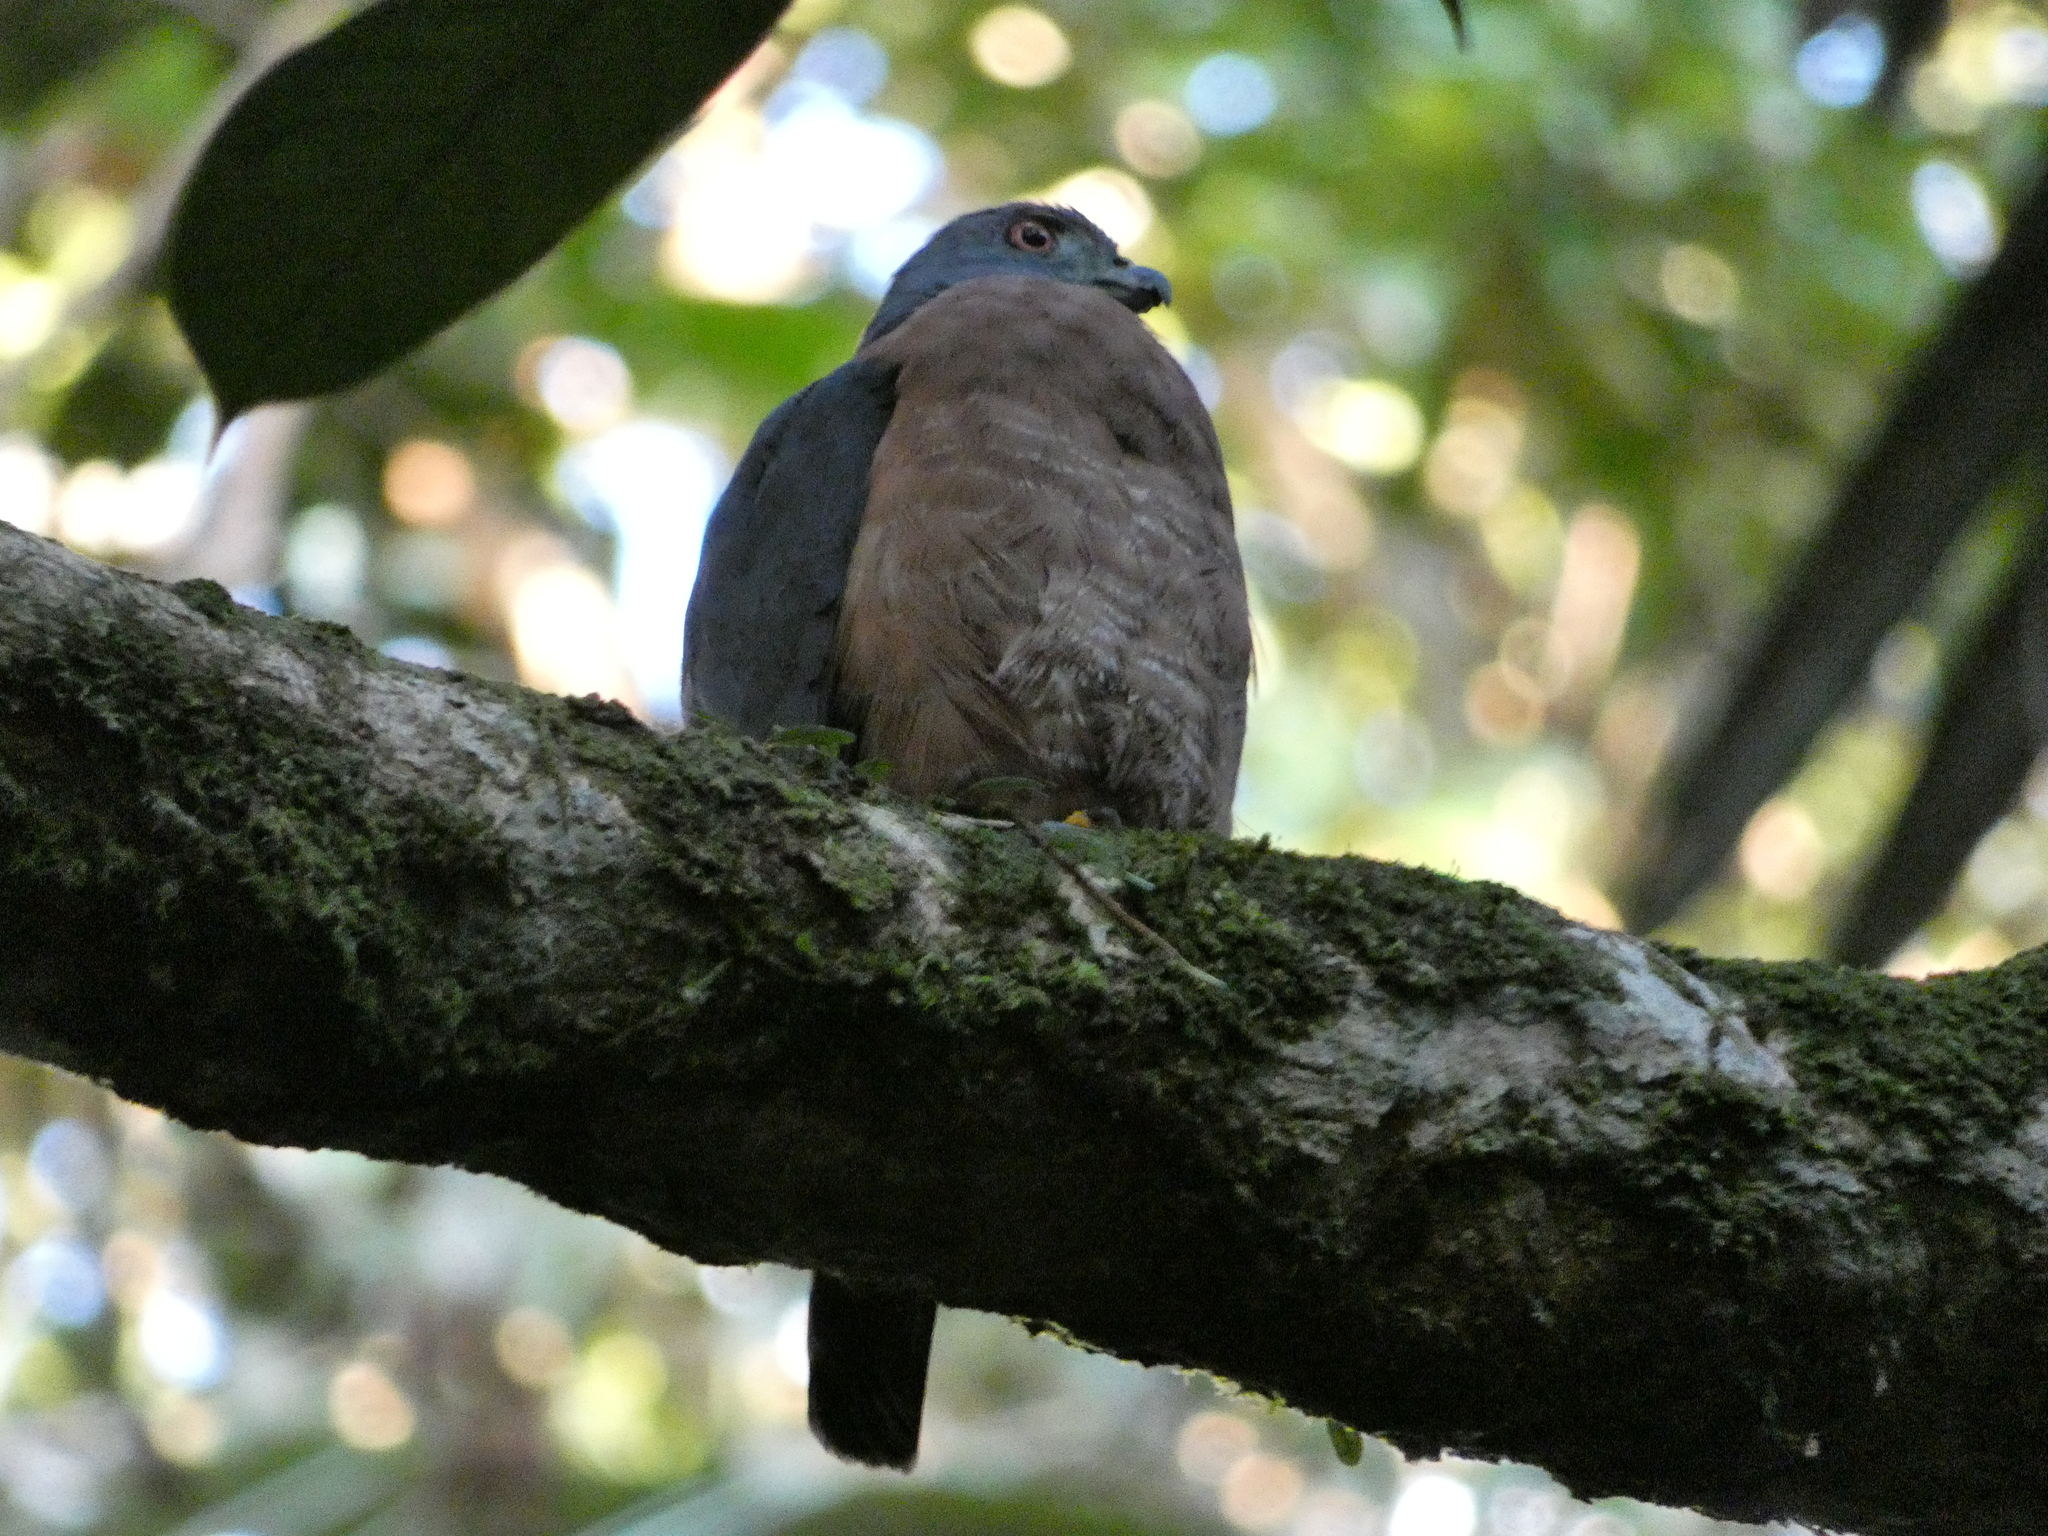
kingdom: Animalia
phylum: Chordata
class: Aves
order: Accipitriformes
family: Accipitridae
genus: Harpagus
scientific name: Harpagus bidentatus
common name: Double-toothed kite
